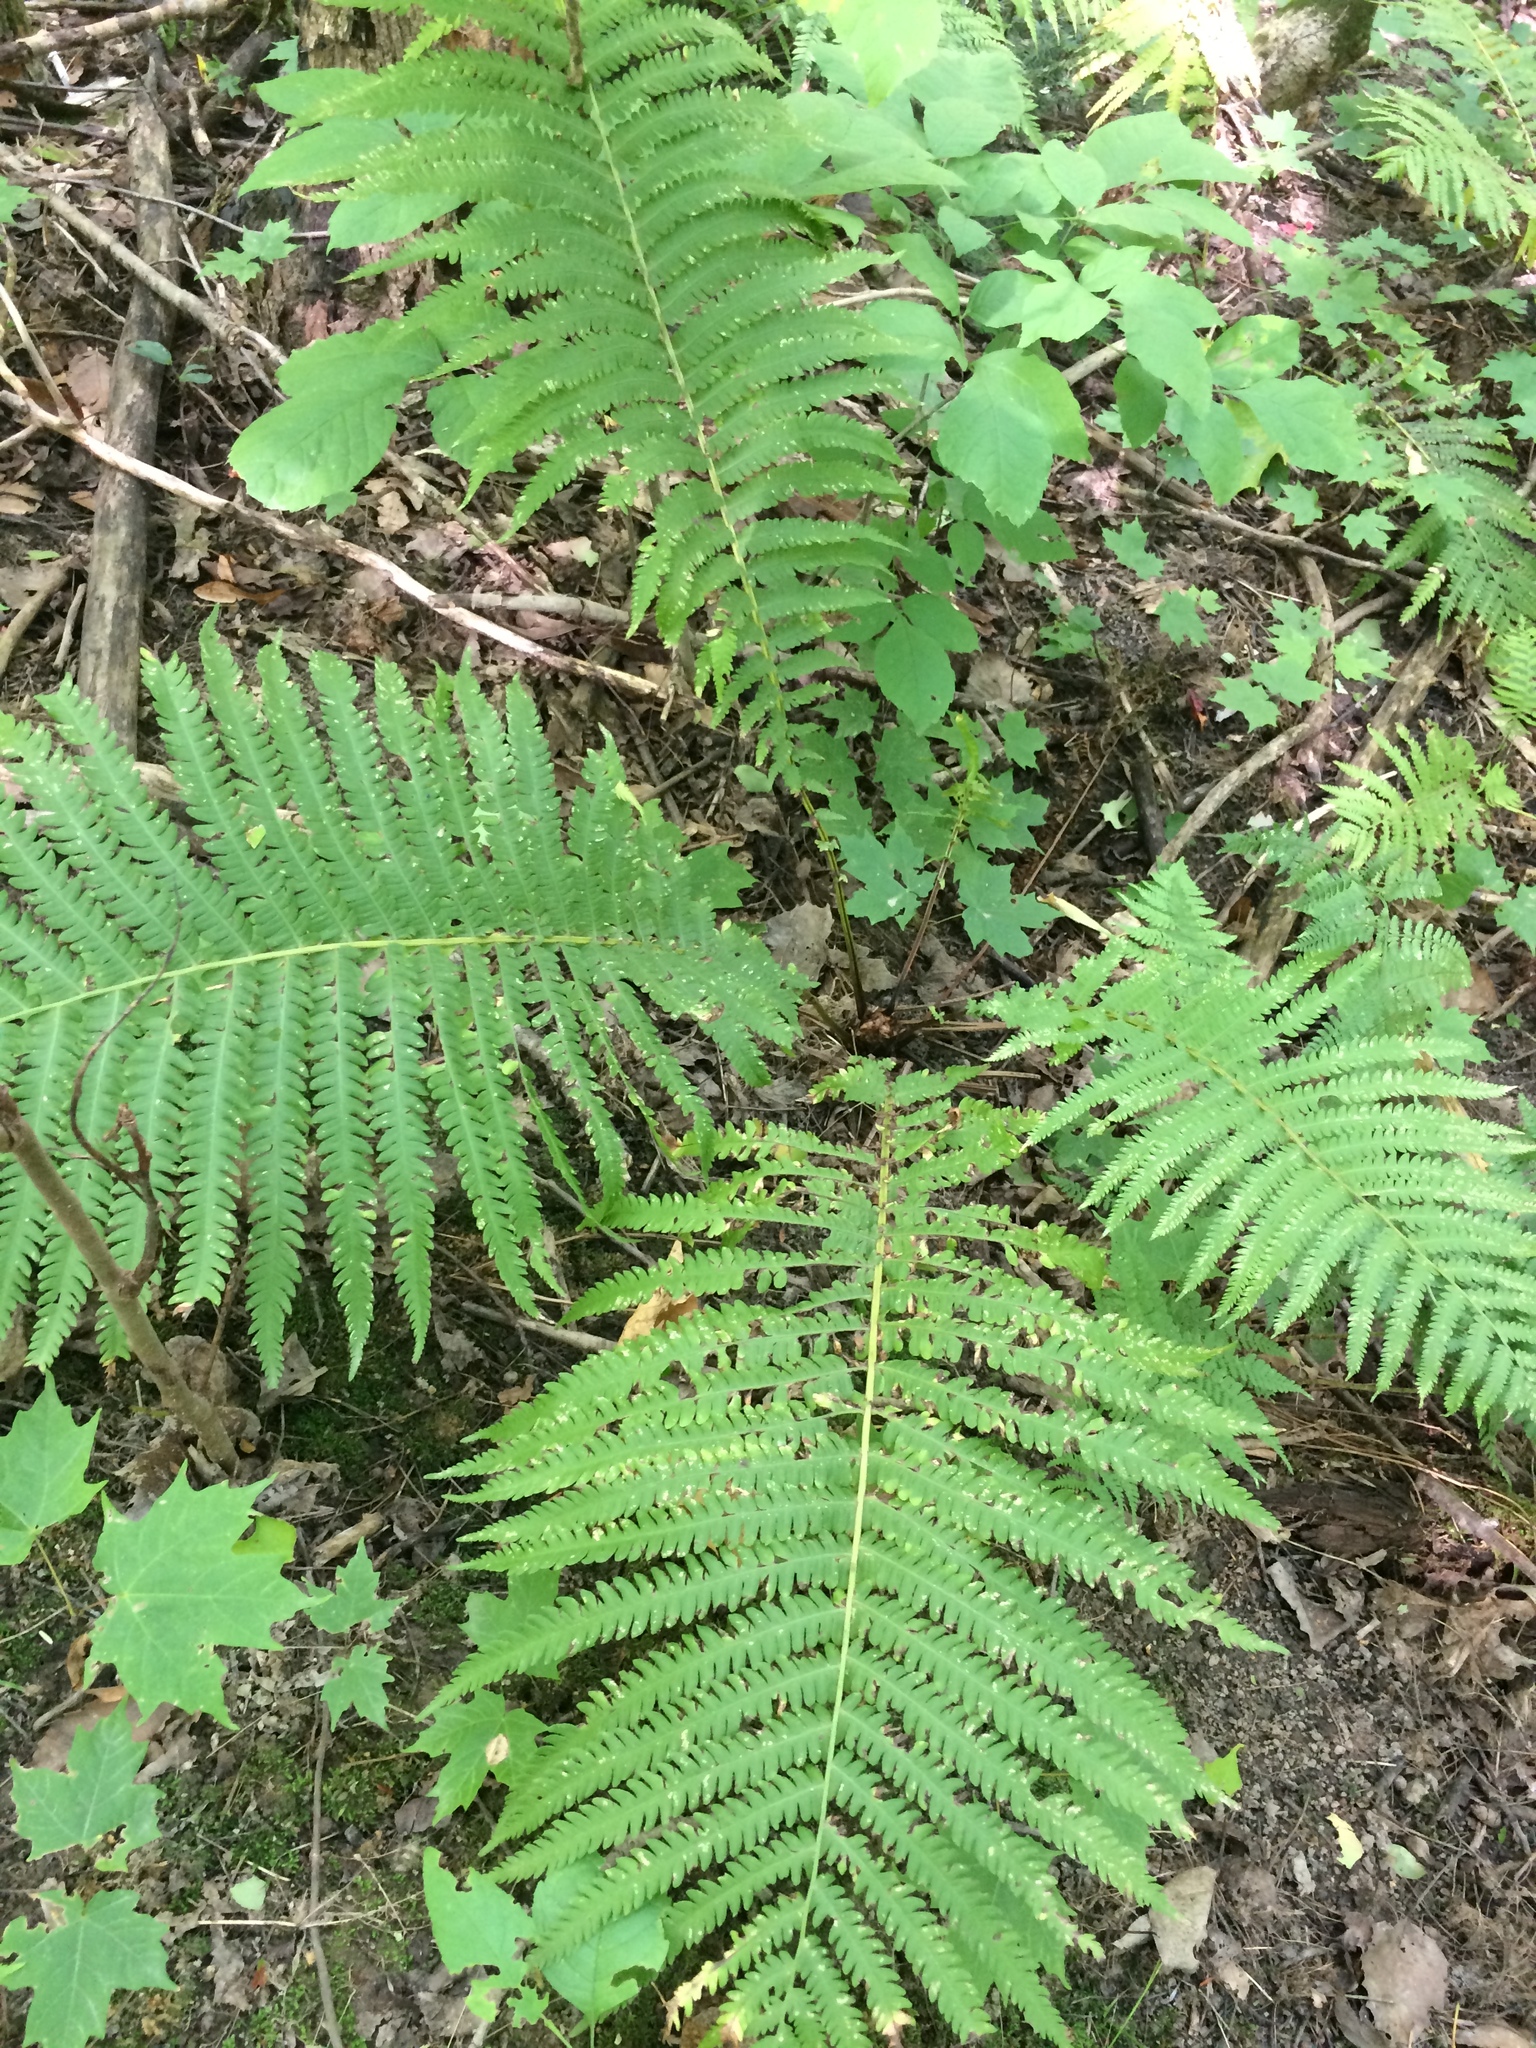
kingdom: Plantae
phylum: Tracheophyta
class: Polypodiopsida
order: Polypodiales
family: Onocleaceae
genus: Matteuccia
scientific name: Matteuccia struthiopteris
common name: Ostrich fern
